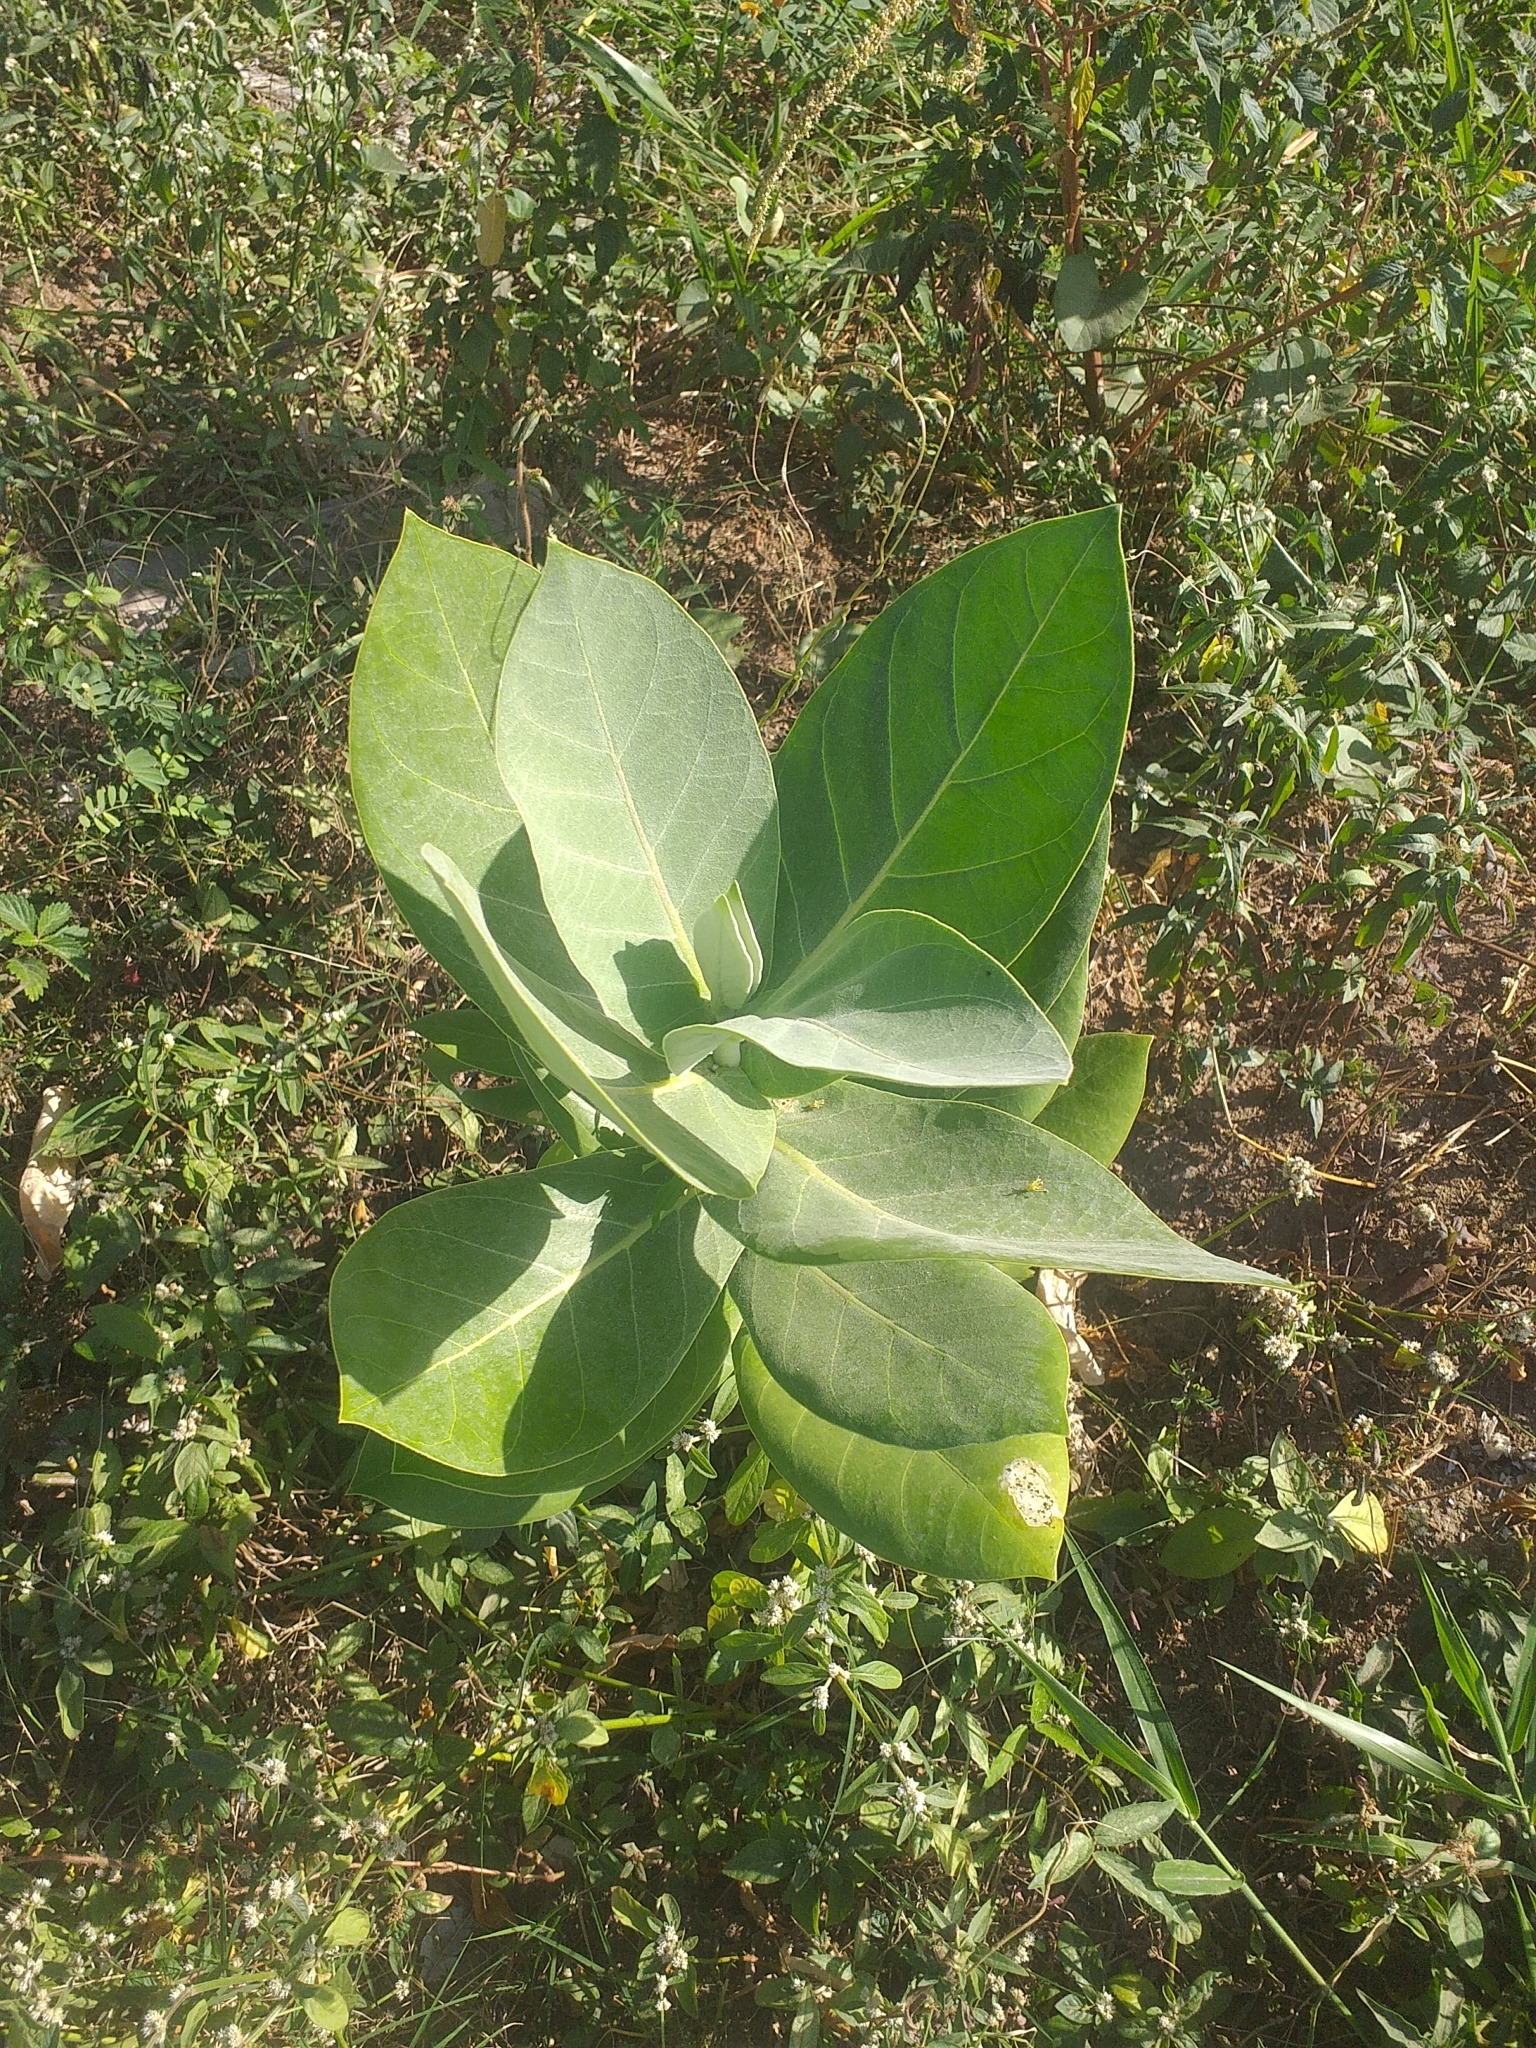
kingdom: Plantae
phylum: Tracheophyta
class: Magnoliopsida
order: Gentianales
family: Apocynaceae
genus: Calotropis
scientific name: Calotropis procera
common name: Roostertree
